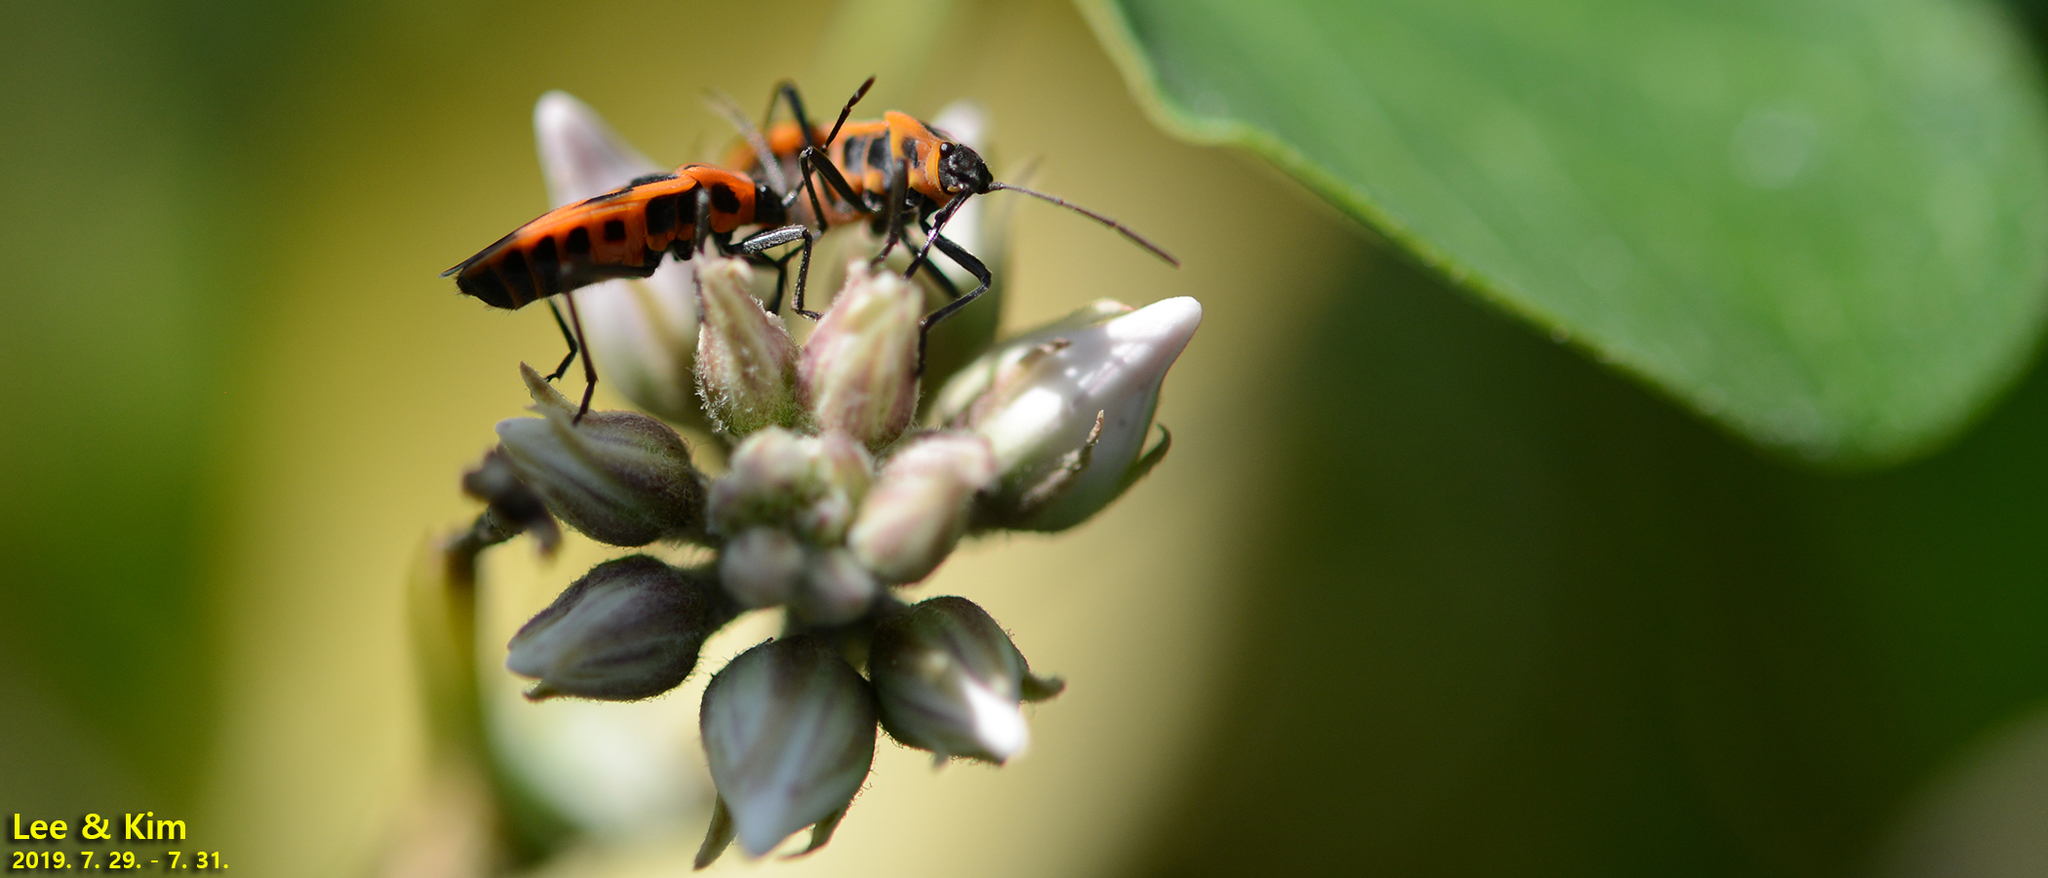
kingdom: Animalia
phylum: Arthropoda
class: Insecta
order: Hemiptera
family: Lygaeidae
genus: Tropidothorax
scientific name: Tropidothorax
